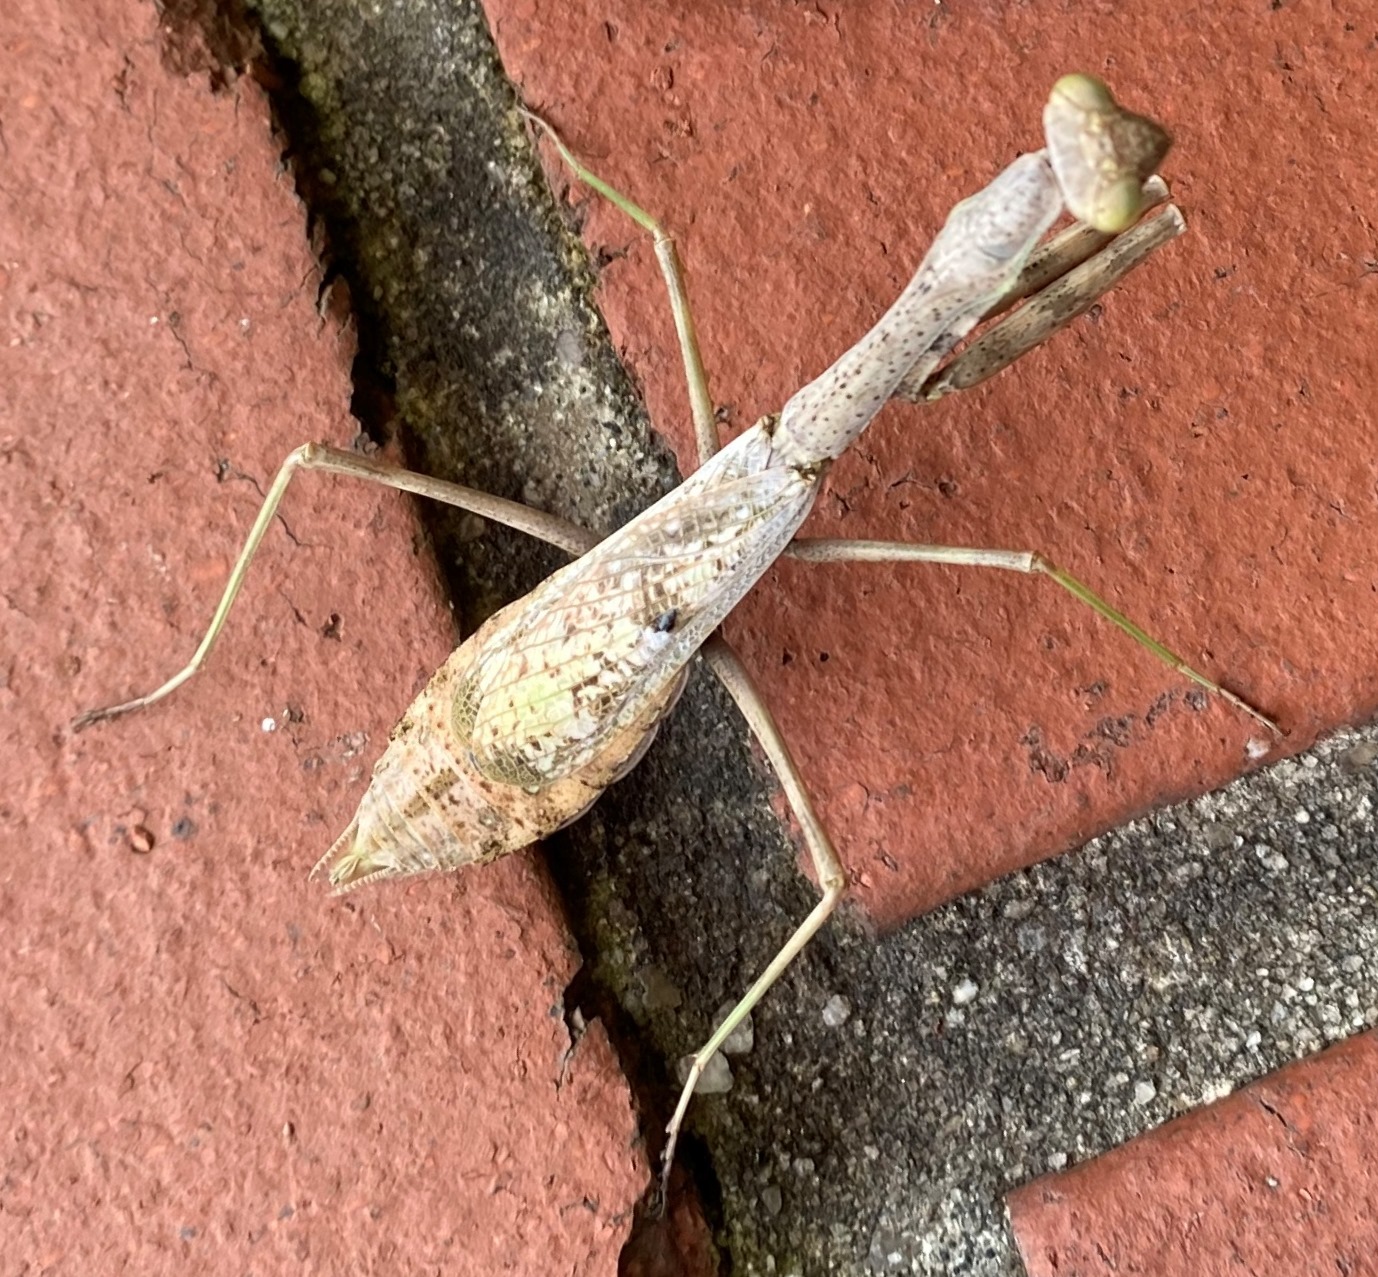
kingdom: Animalia
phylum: Arthropoda
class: Insecta
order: Mantodea
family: Mantidae
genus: Stagmomantis
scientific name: Stagmomantis carolina
